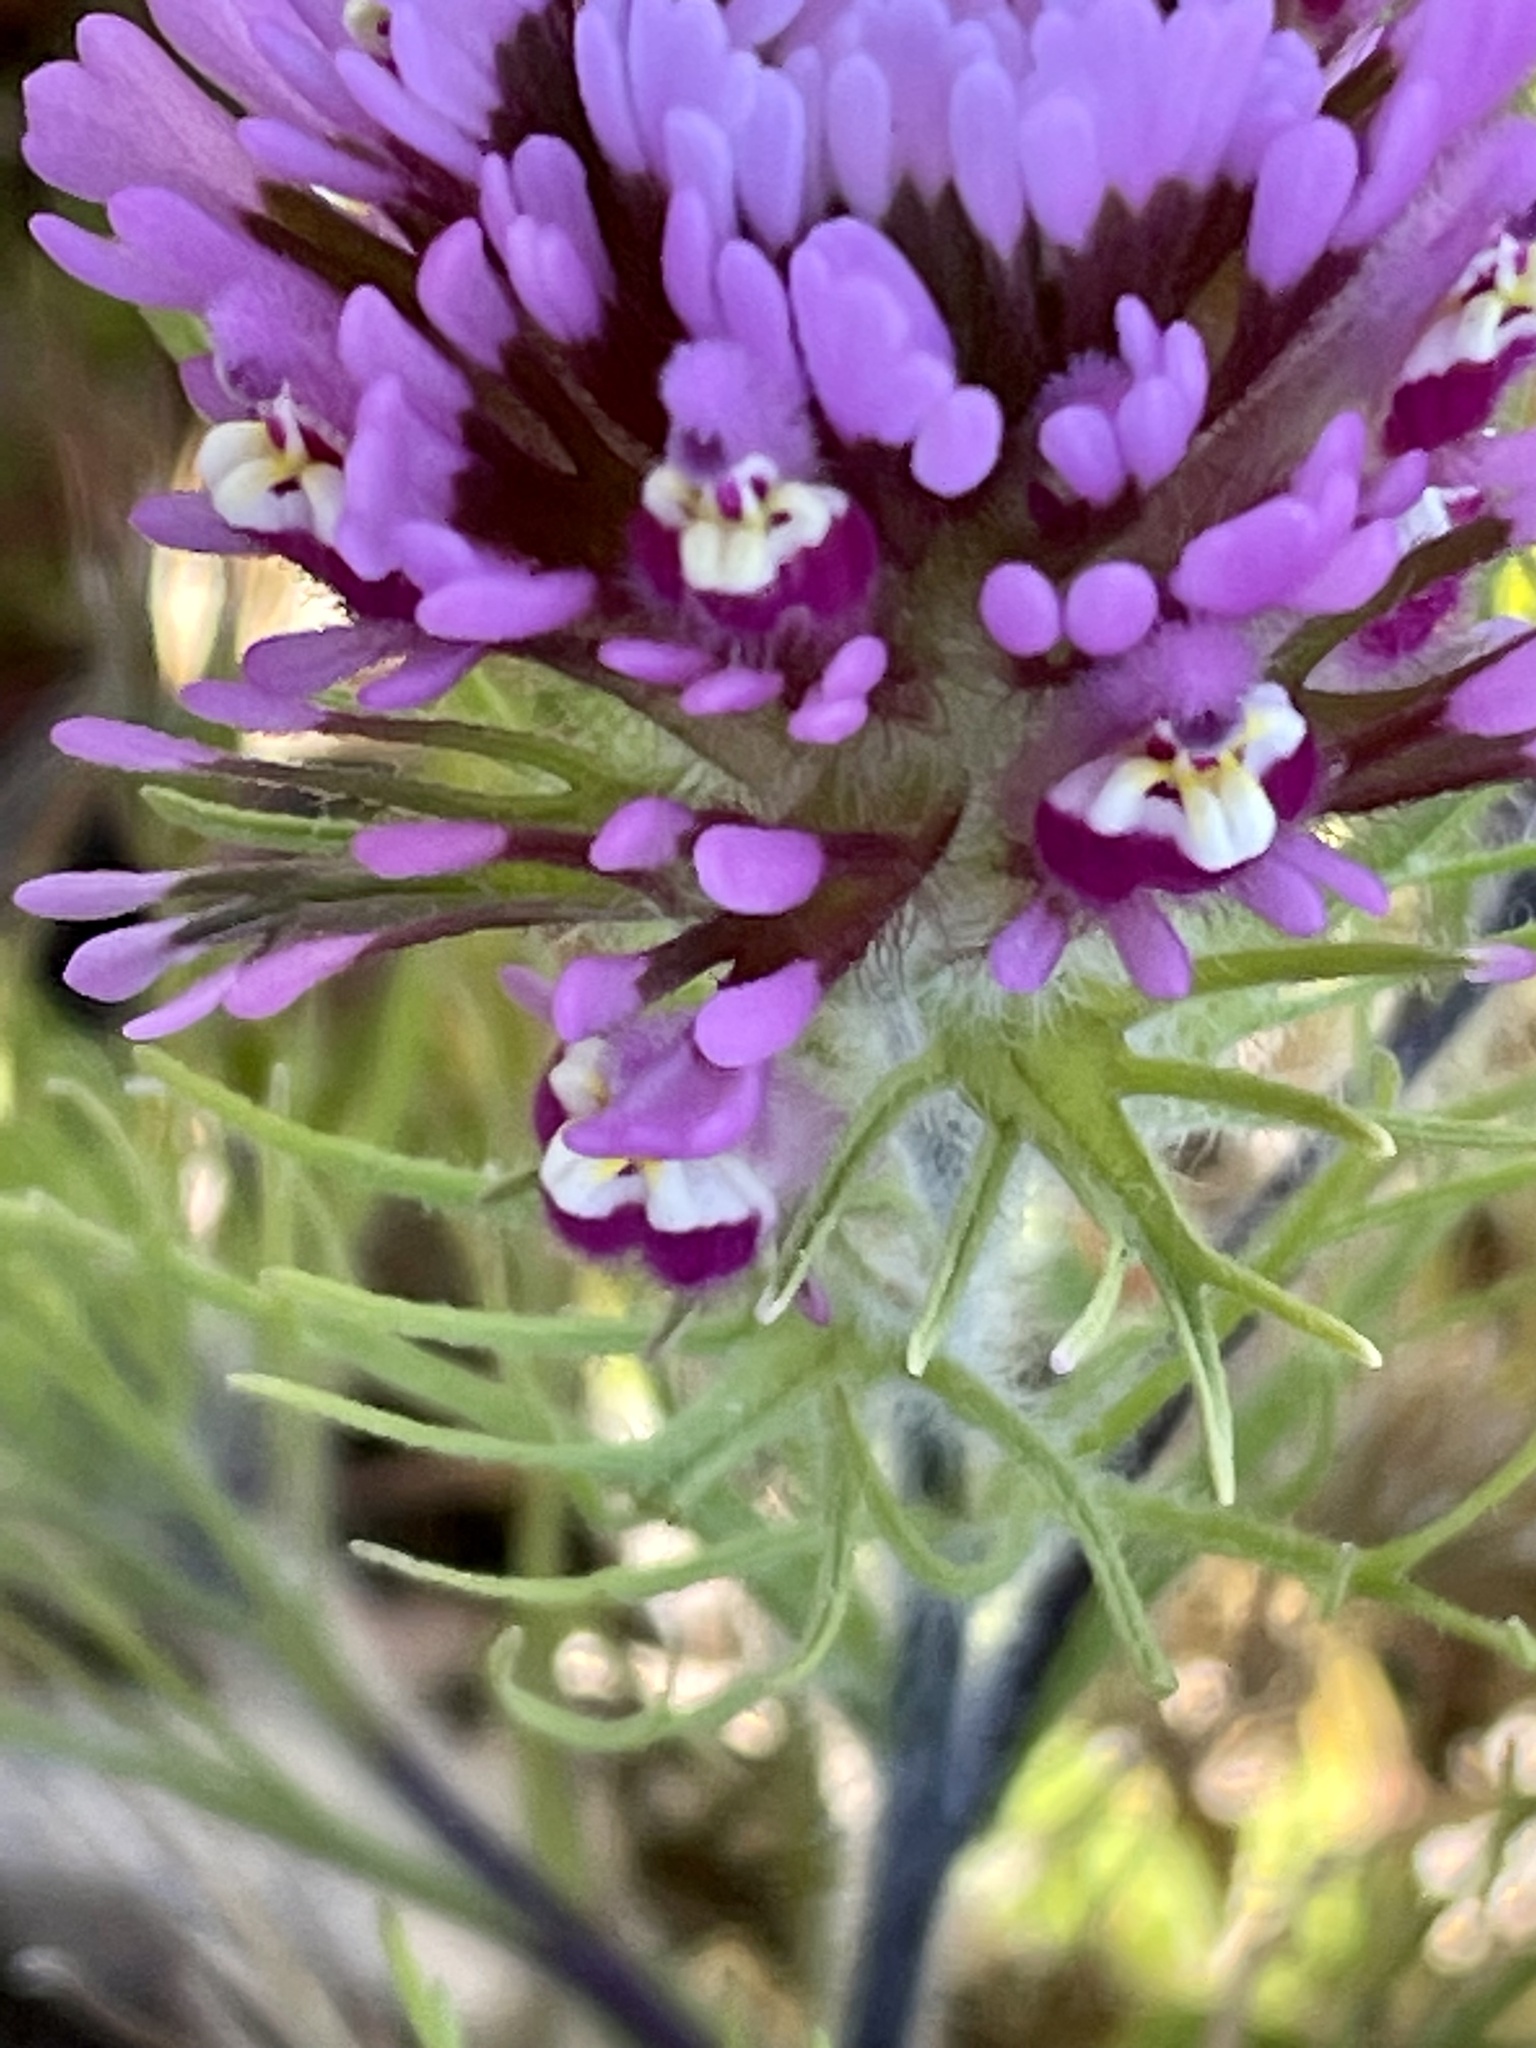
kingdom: Plantae
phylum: Tracheophyta
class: Magnoliopsida
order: Lamiales
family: Orobanchaceae
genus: Castilleja
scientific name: Castilleja exserta
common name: Purple owl-clover
